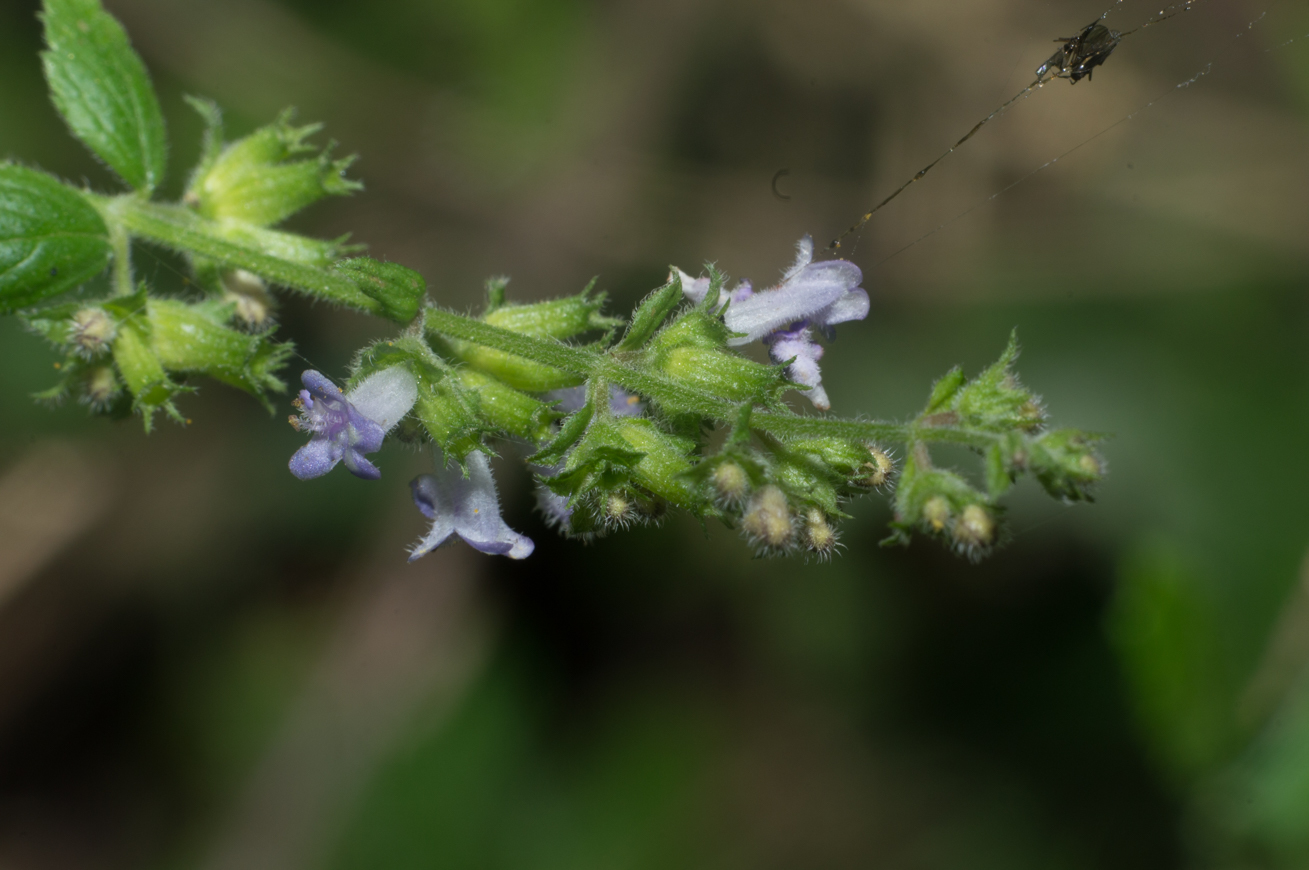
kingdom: Plantae
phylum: Tracheophyta
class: Magnoliopsida
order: Lamiales
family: Lamiaceae
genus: Cantinoa
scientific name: Cantinoa mutabilis
